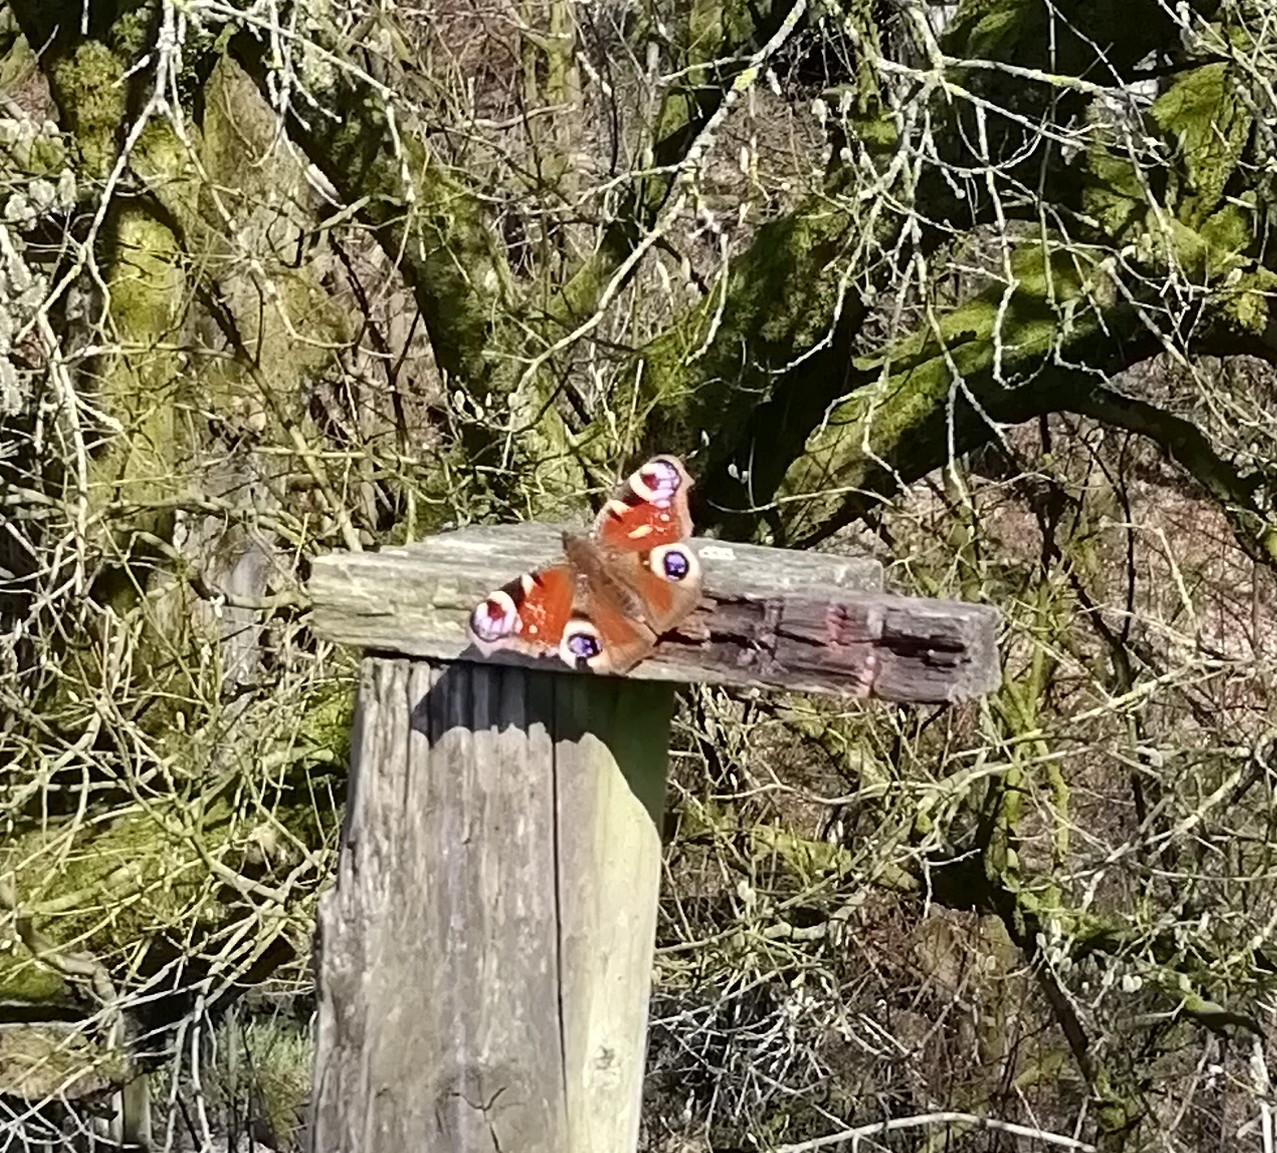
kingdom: Animalia
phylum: Arthropoda
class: Insecta
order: Lepidoptera
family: Nymphalidae
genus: Aglais
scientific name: Aglais io
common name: Peacock
